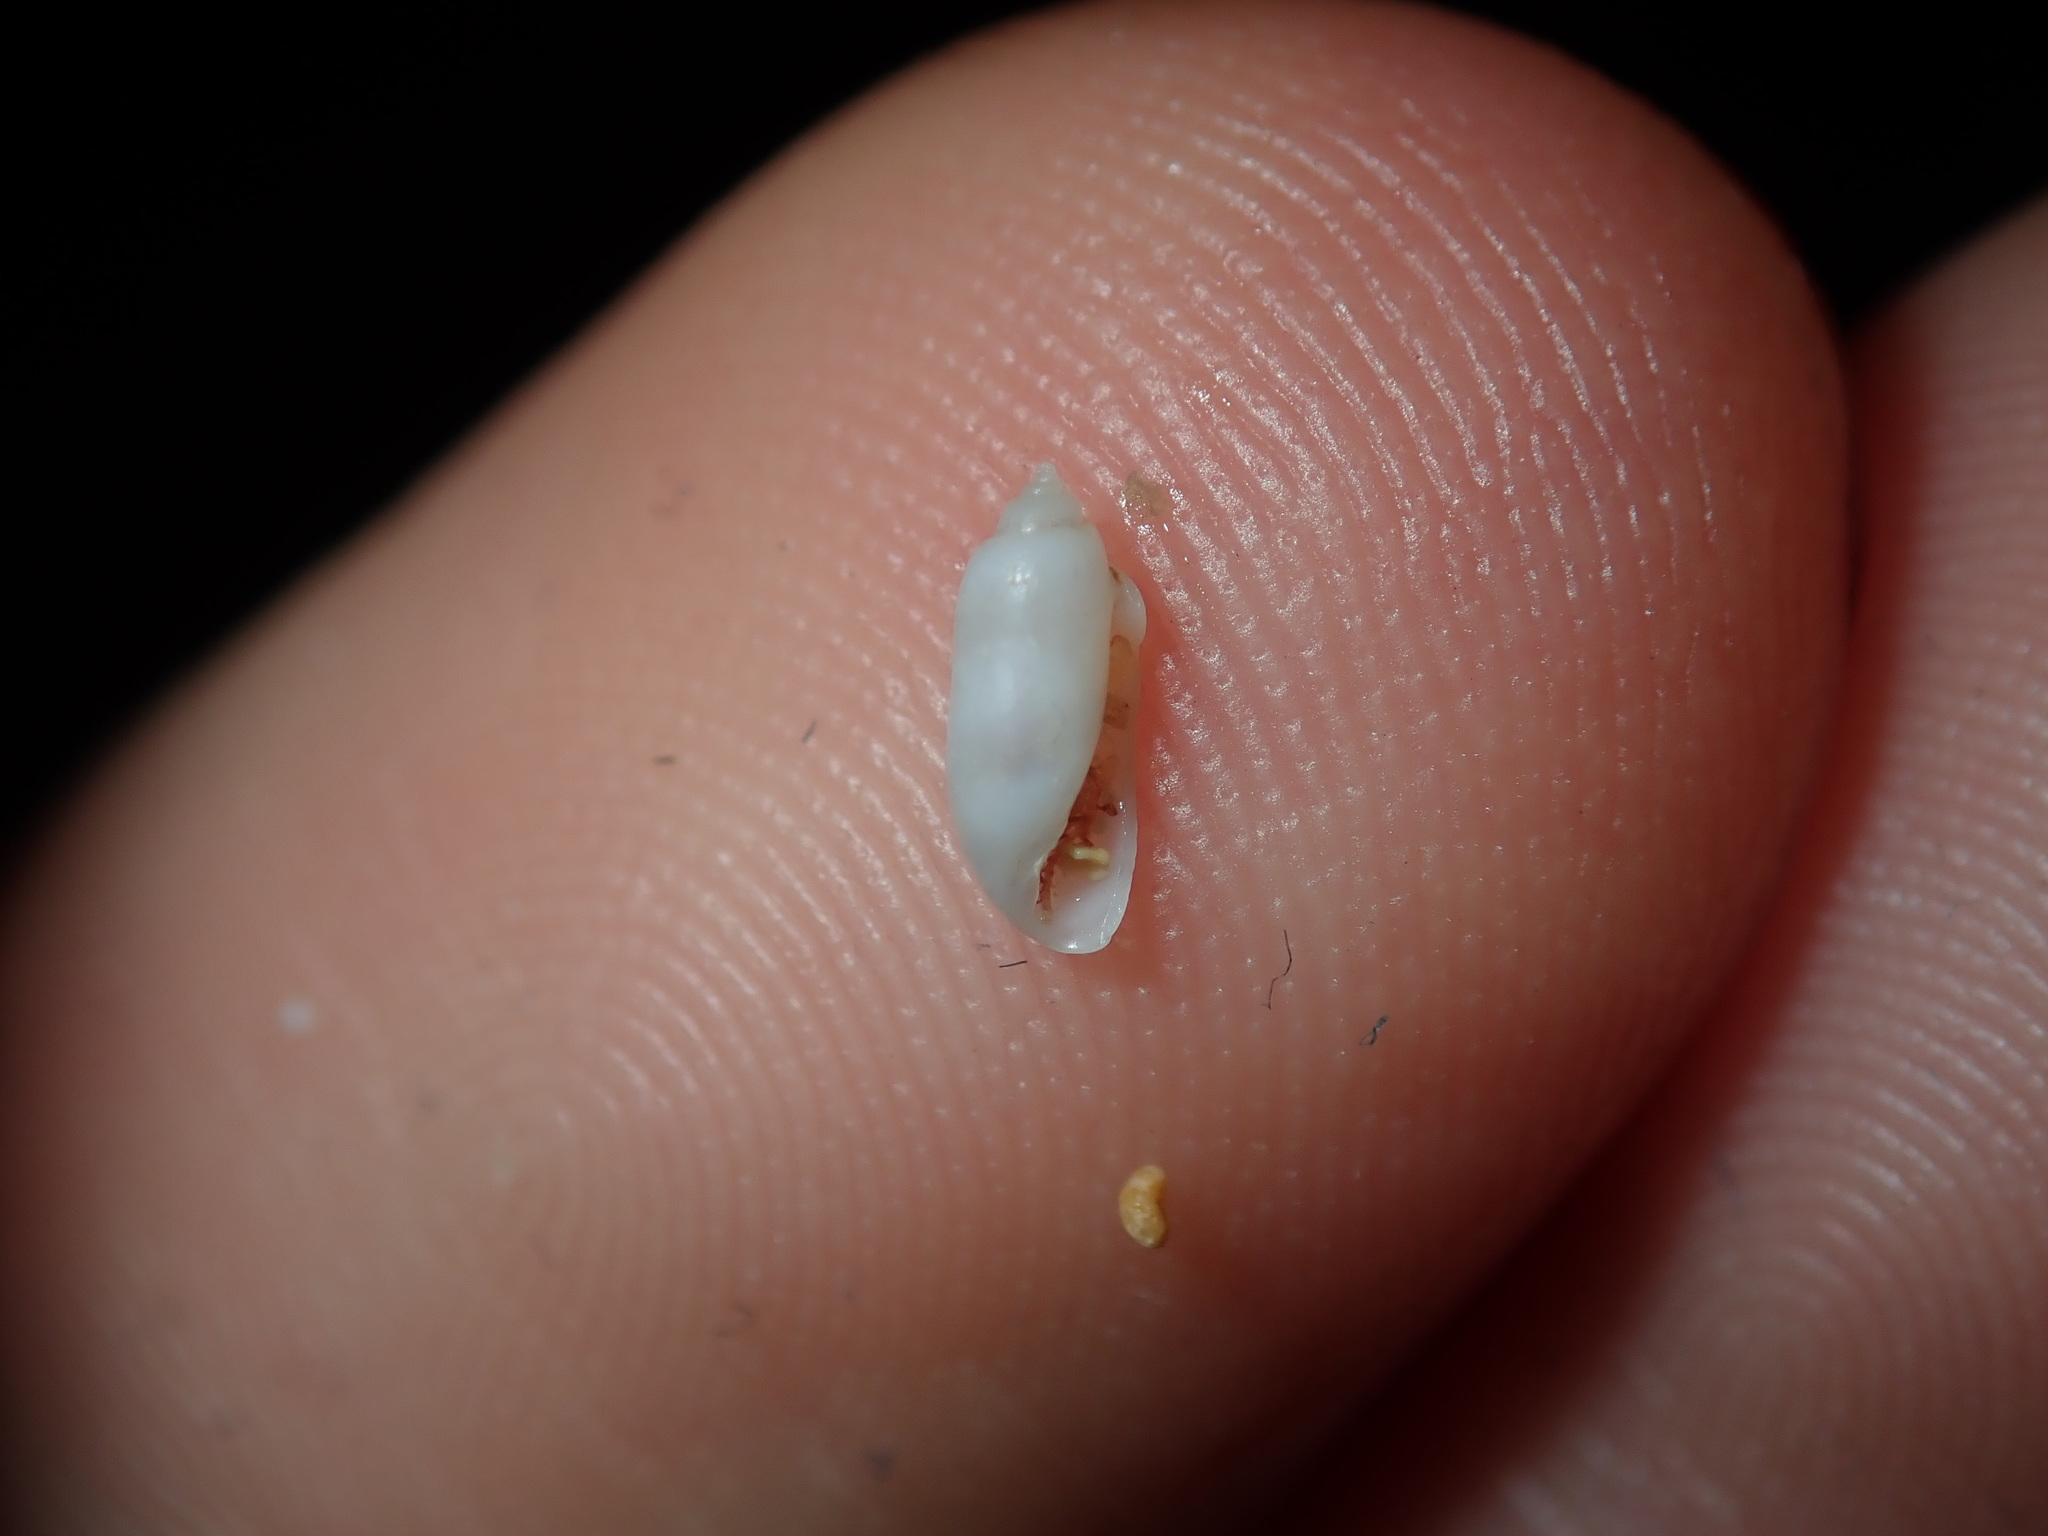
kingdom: Animalia
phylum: Mollusca
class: Gastropoda
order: Cephalaspidea
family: Tornatinidae
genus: Acteocina
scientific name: Acteocina apicina
